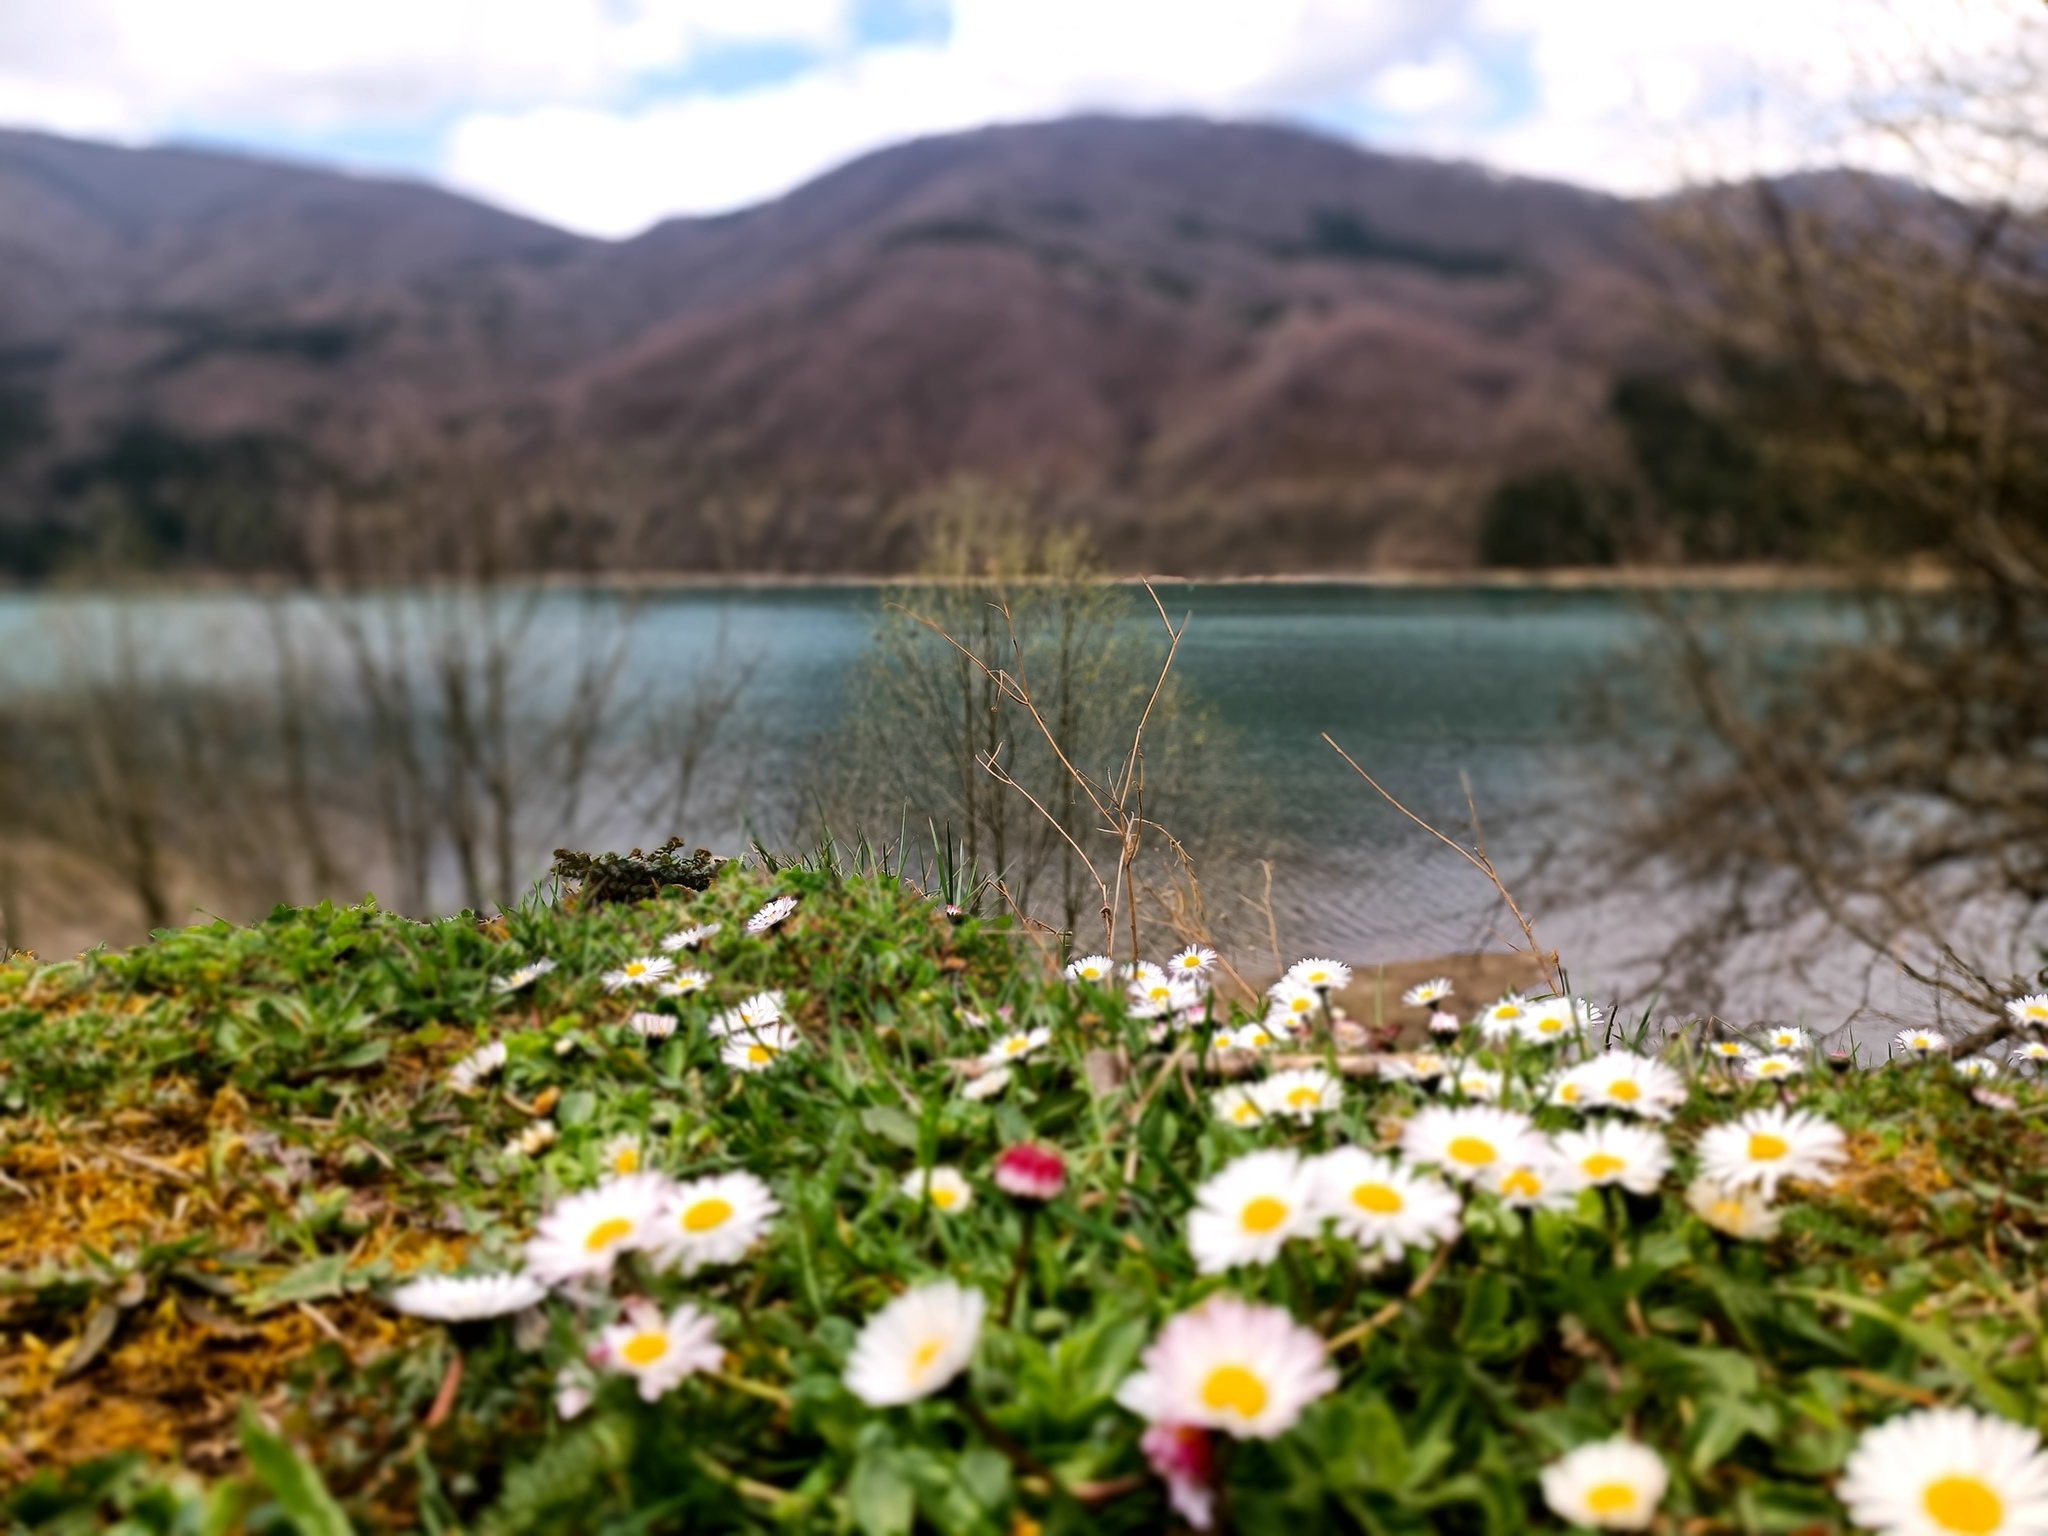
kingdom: Plantae
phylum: Tracheophyta
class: Magnoliopsida
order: Asterales
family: Asteraceae
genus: Bellis
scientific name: Bellis perennis
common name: Lawndaisy
